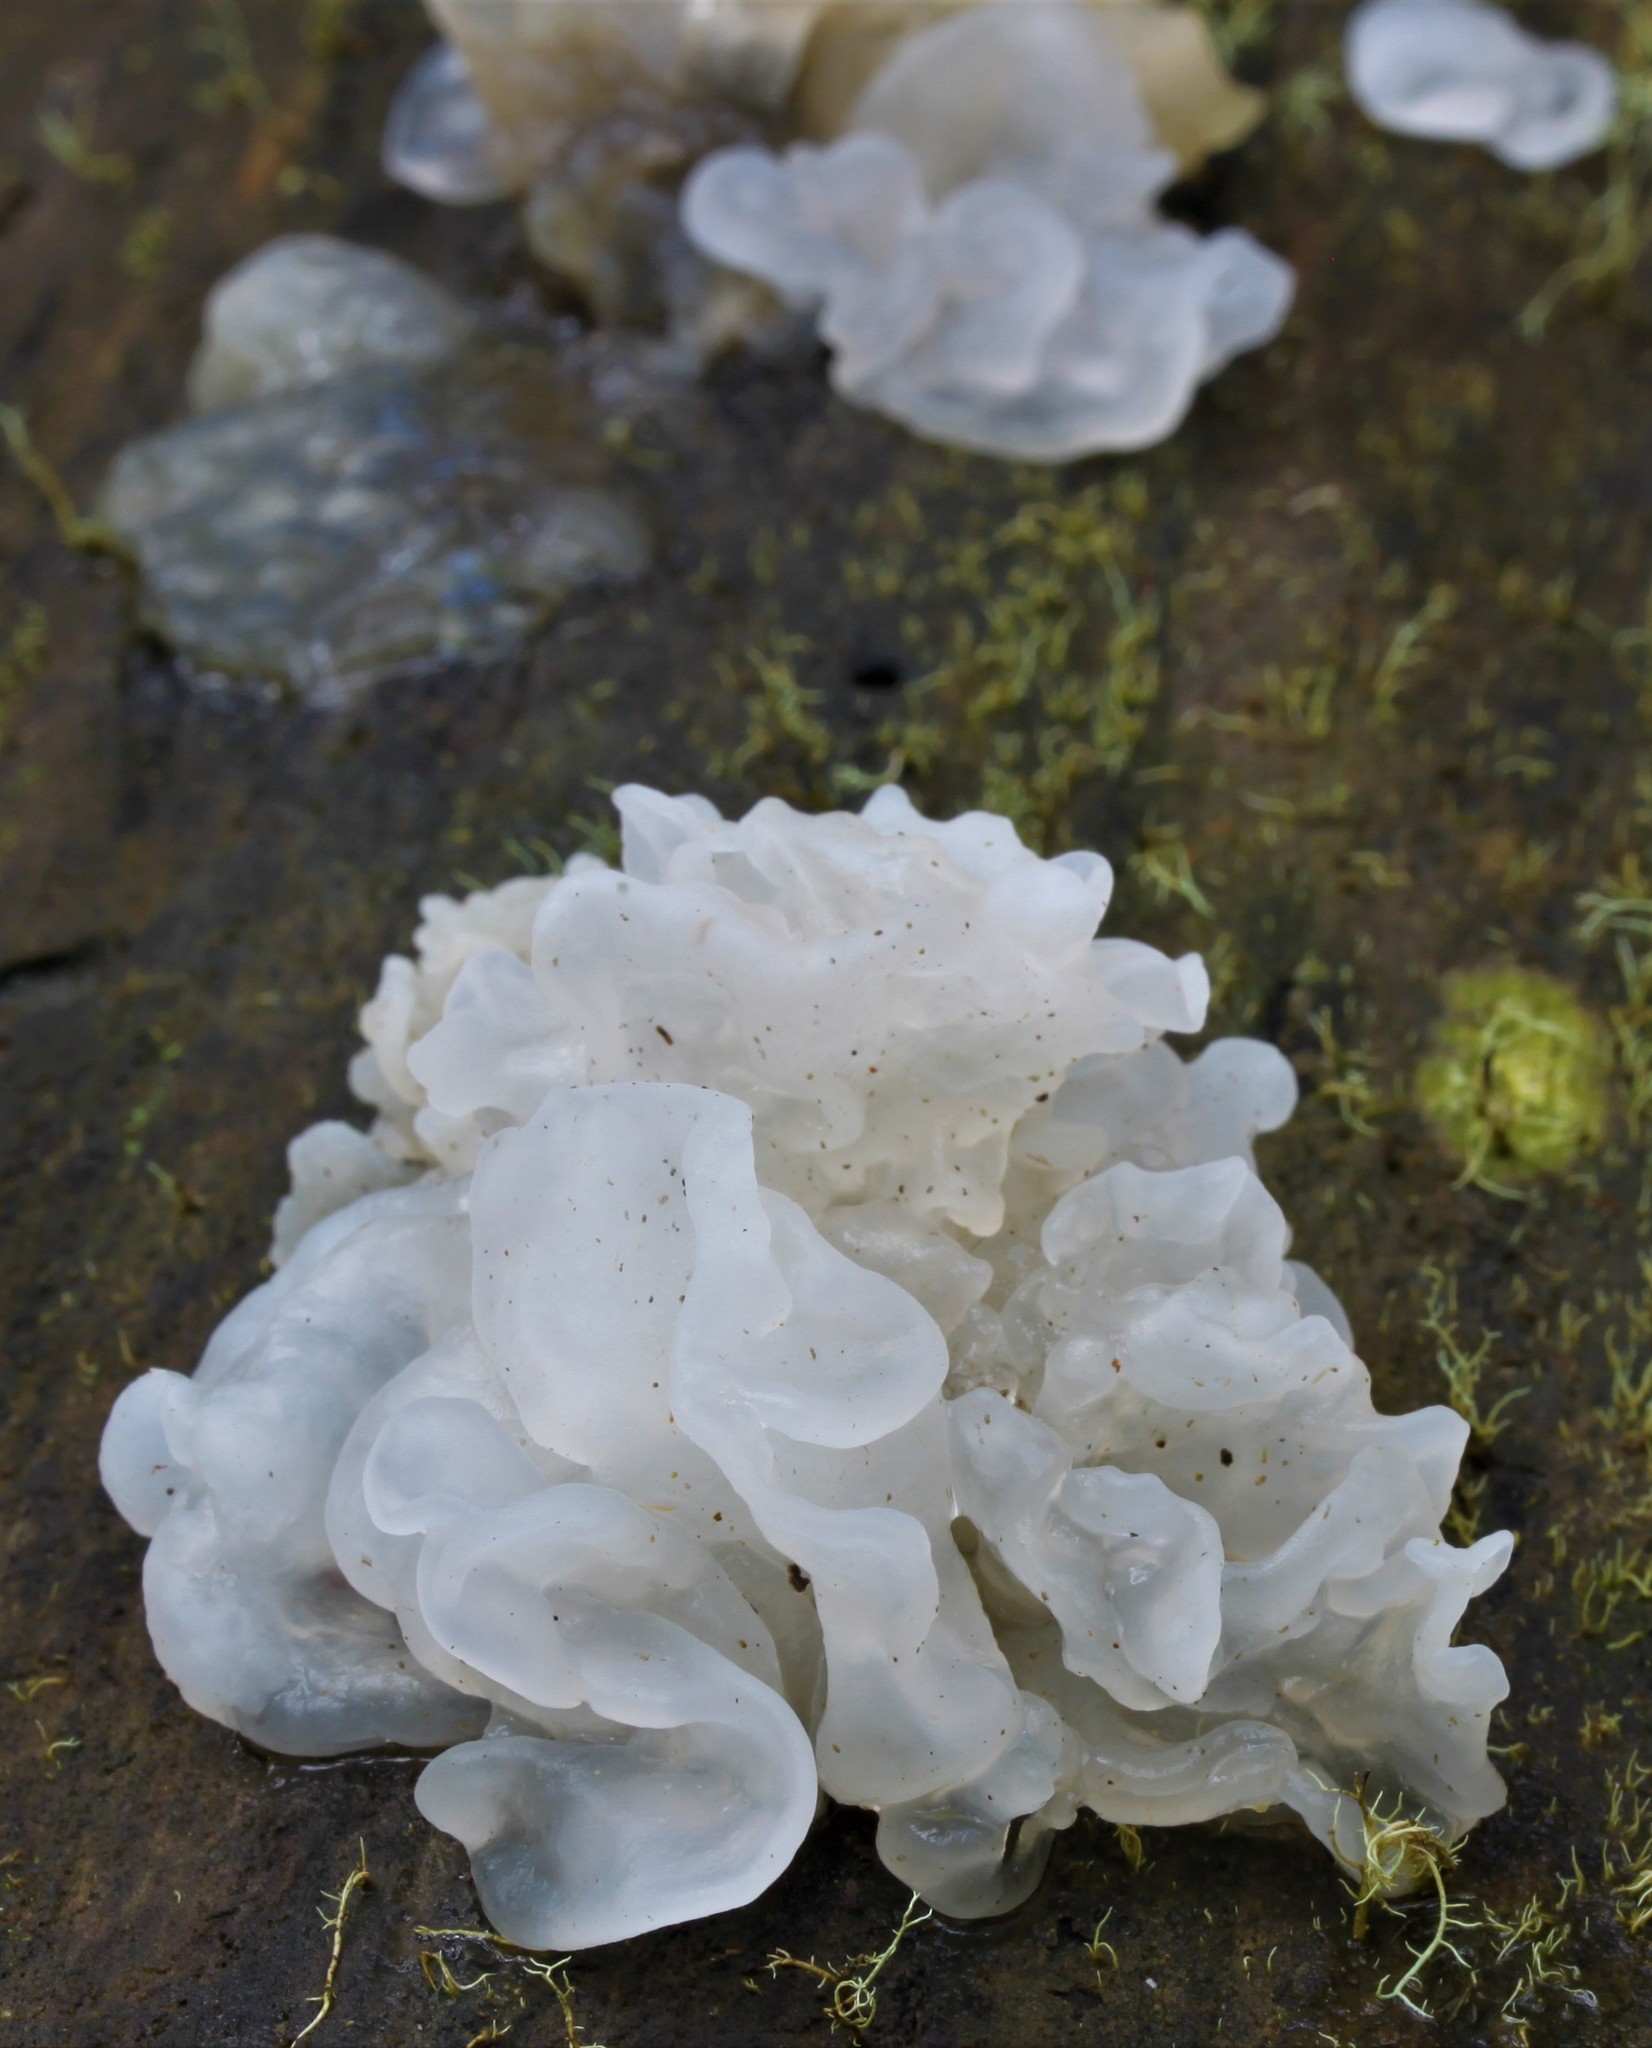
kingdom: Fungi
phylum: Basidiomycota
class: Tremellomycetes
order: Tremellales
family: Tremellaceae
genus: Tremella
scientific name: Tremella fuciformis
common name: Snow fungus
